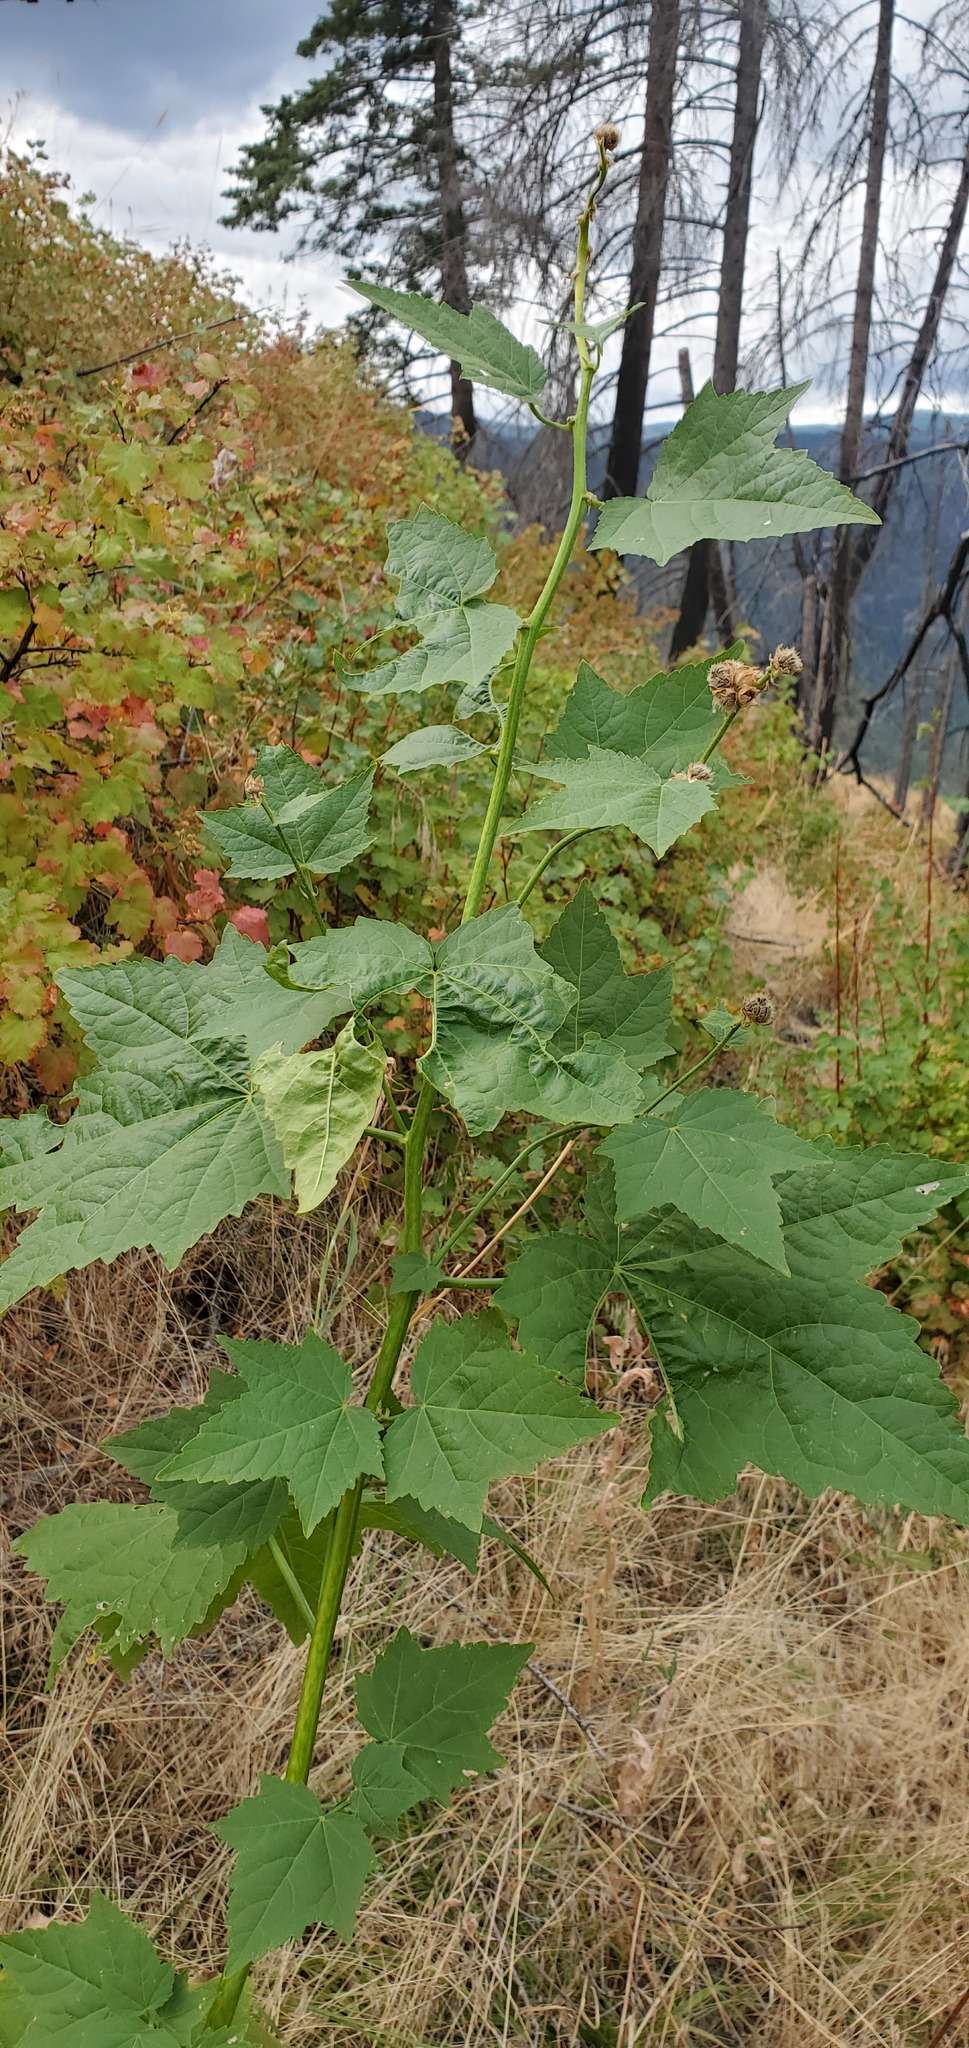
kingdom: Plantae
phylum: Tracheophyta
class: Magnoliopsida
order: Malvales
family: Malvaceae
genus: Iliamna
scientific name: Iliamna rivularis
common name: Wild hollyhock
